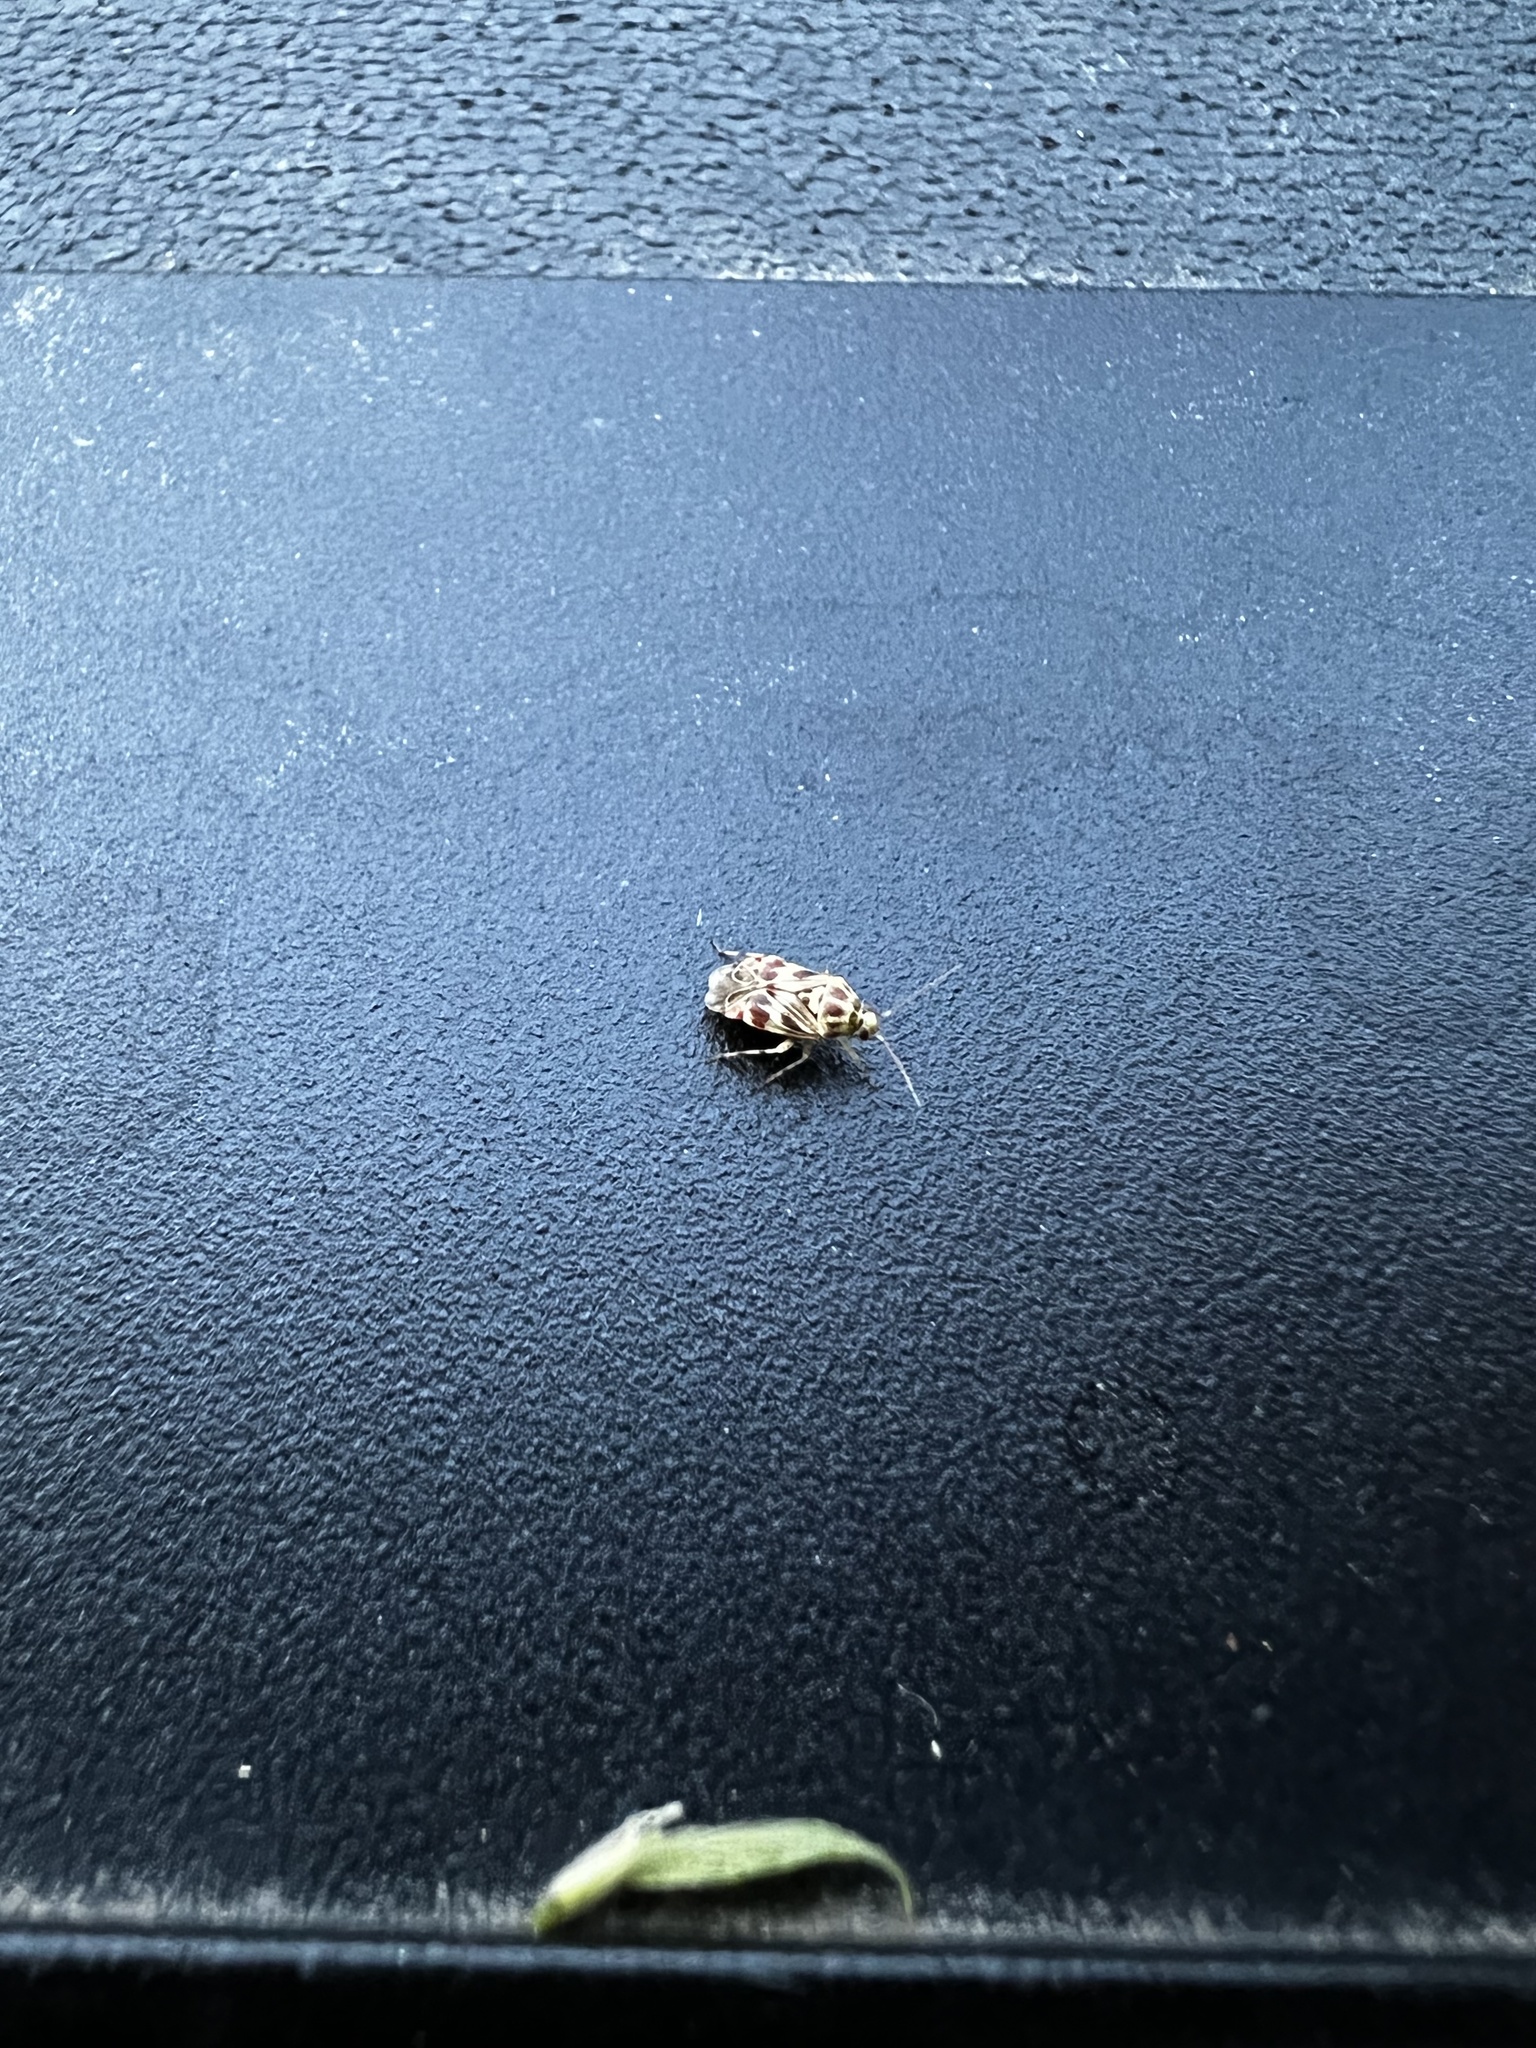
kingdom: Animalia
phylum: Arthropoda
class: Insecta
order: Hemiptera
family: Miridae
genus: Tropidosteptes
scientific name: Tropidosteptes quercicola
